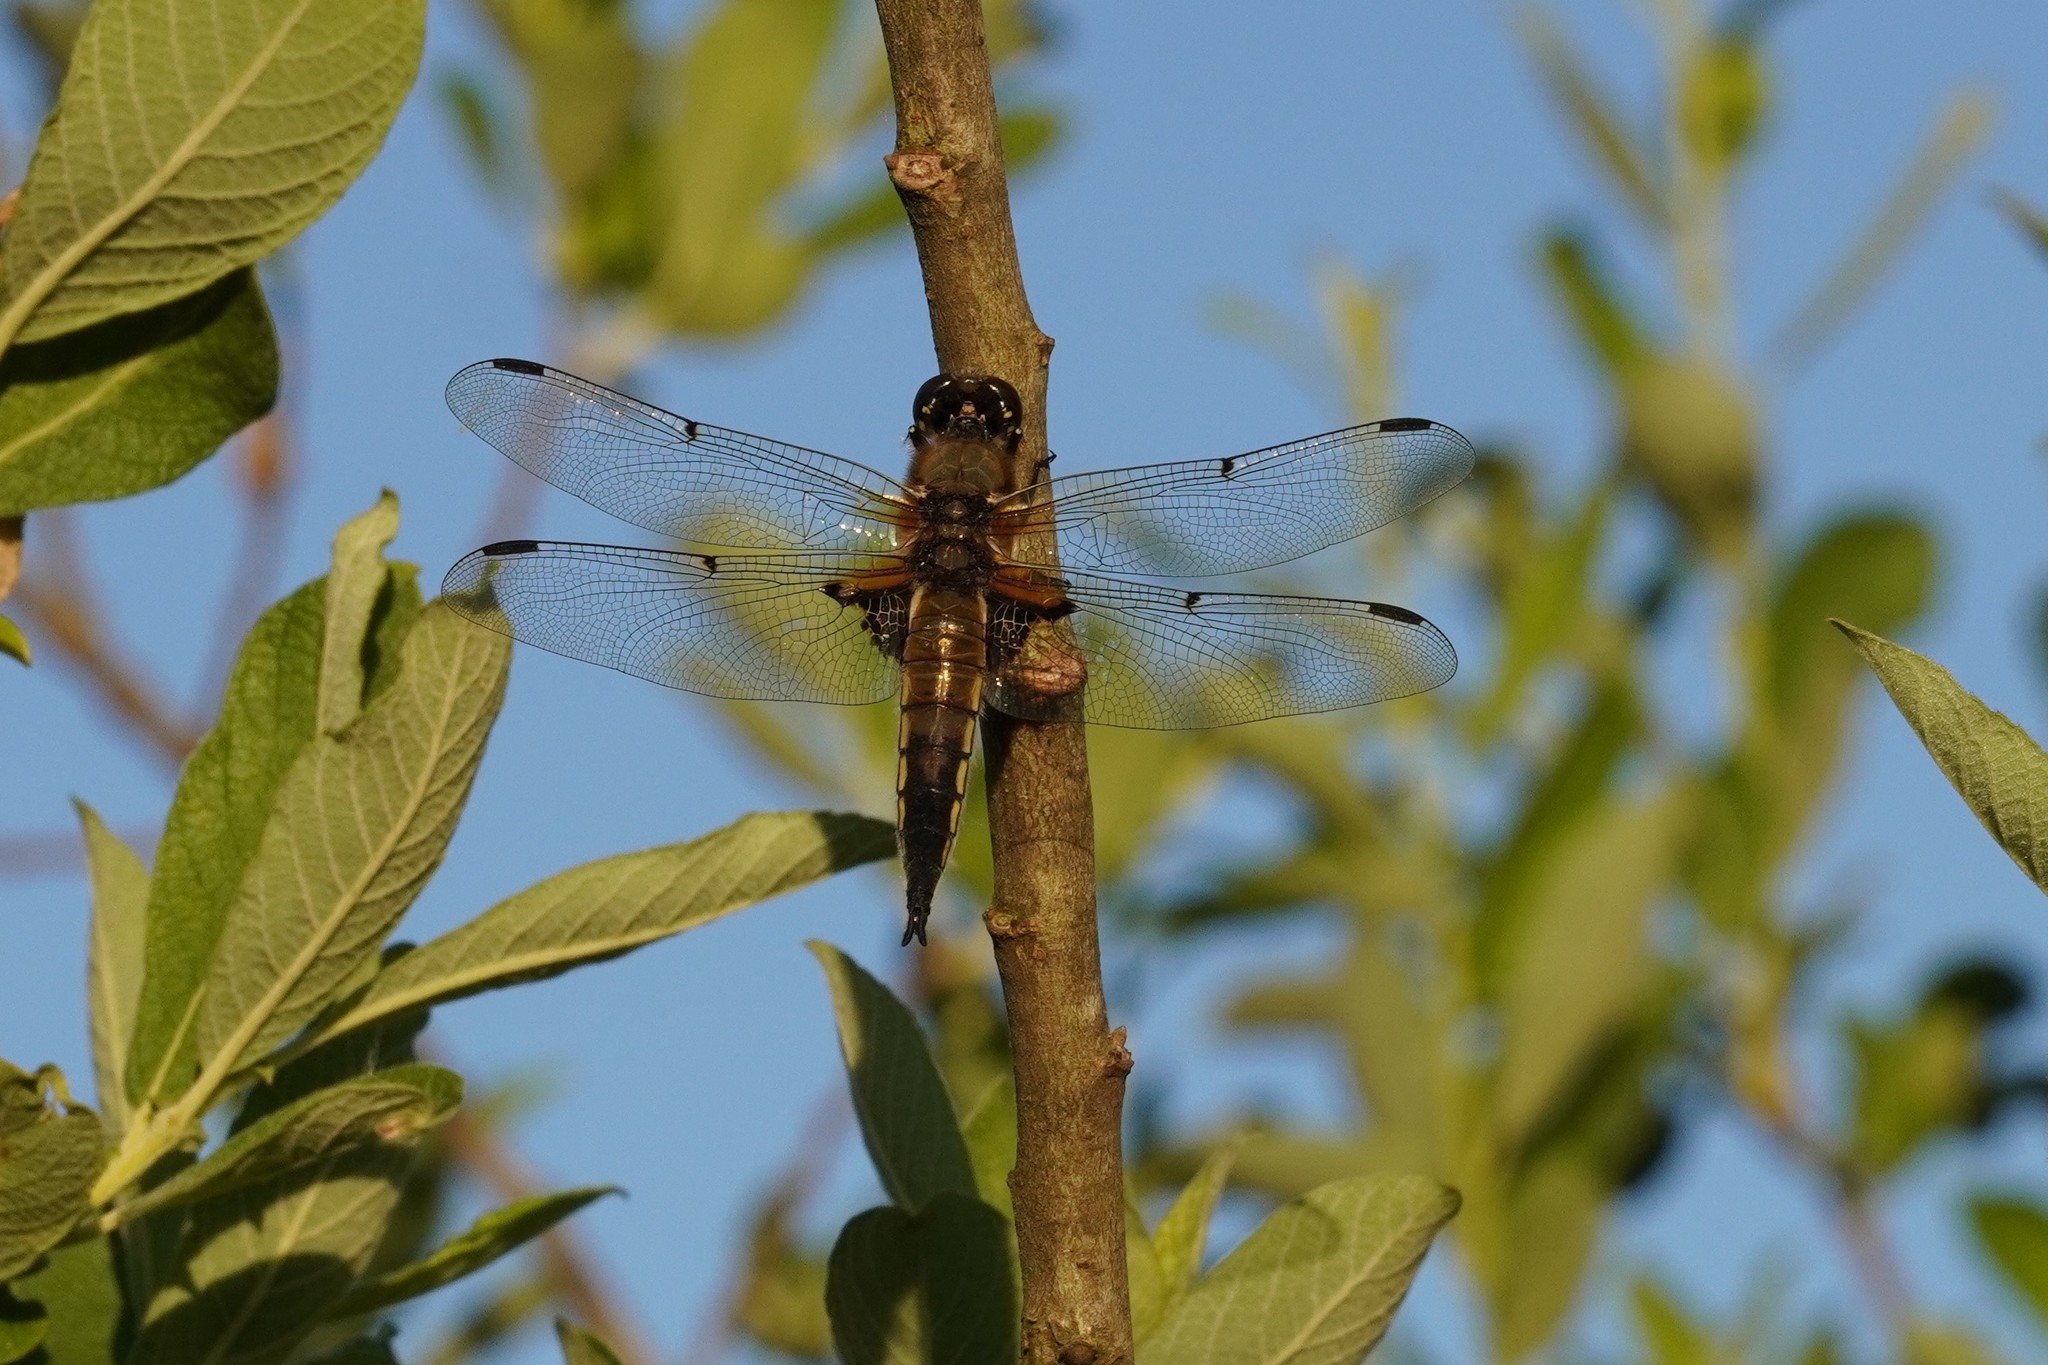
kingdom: Animalia
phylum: Arthropoda
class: Insecta
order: Odonata
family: Libellulidae
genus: Libellula
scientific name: Libellula quadrimaculata
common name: Four-spotted chaser
